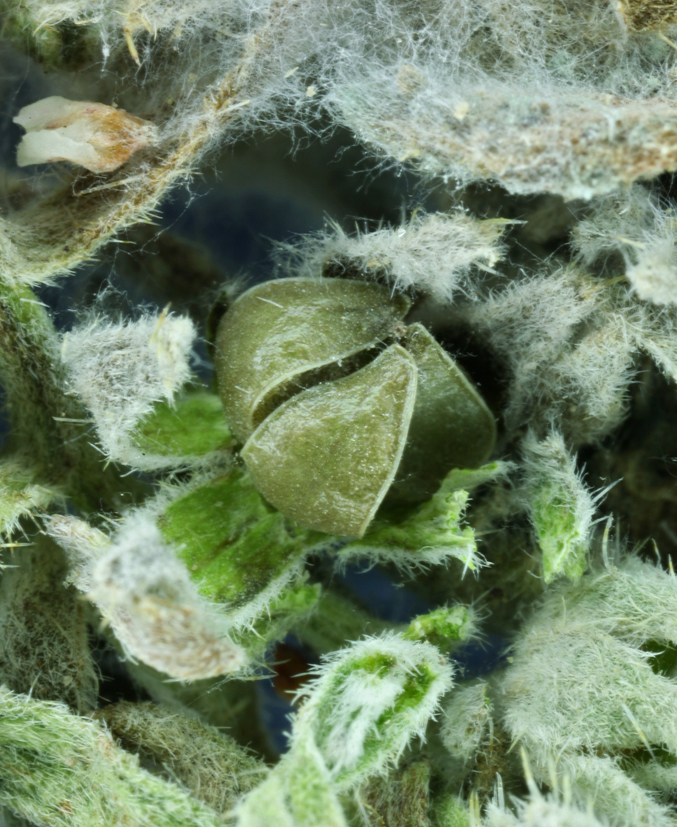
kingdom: Plantae
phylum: Tracheophyta
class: Magnoliopsida
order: Boraginales
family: Boraginaceae
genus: Oreocarya
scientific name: Oreocarya abortiva
